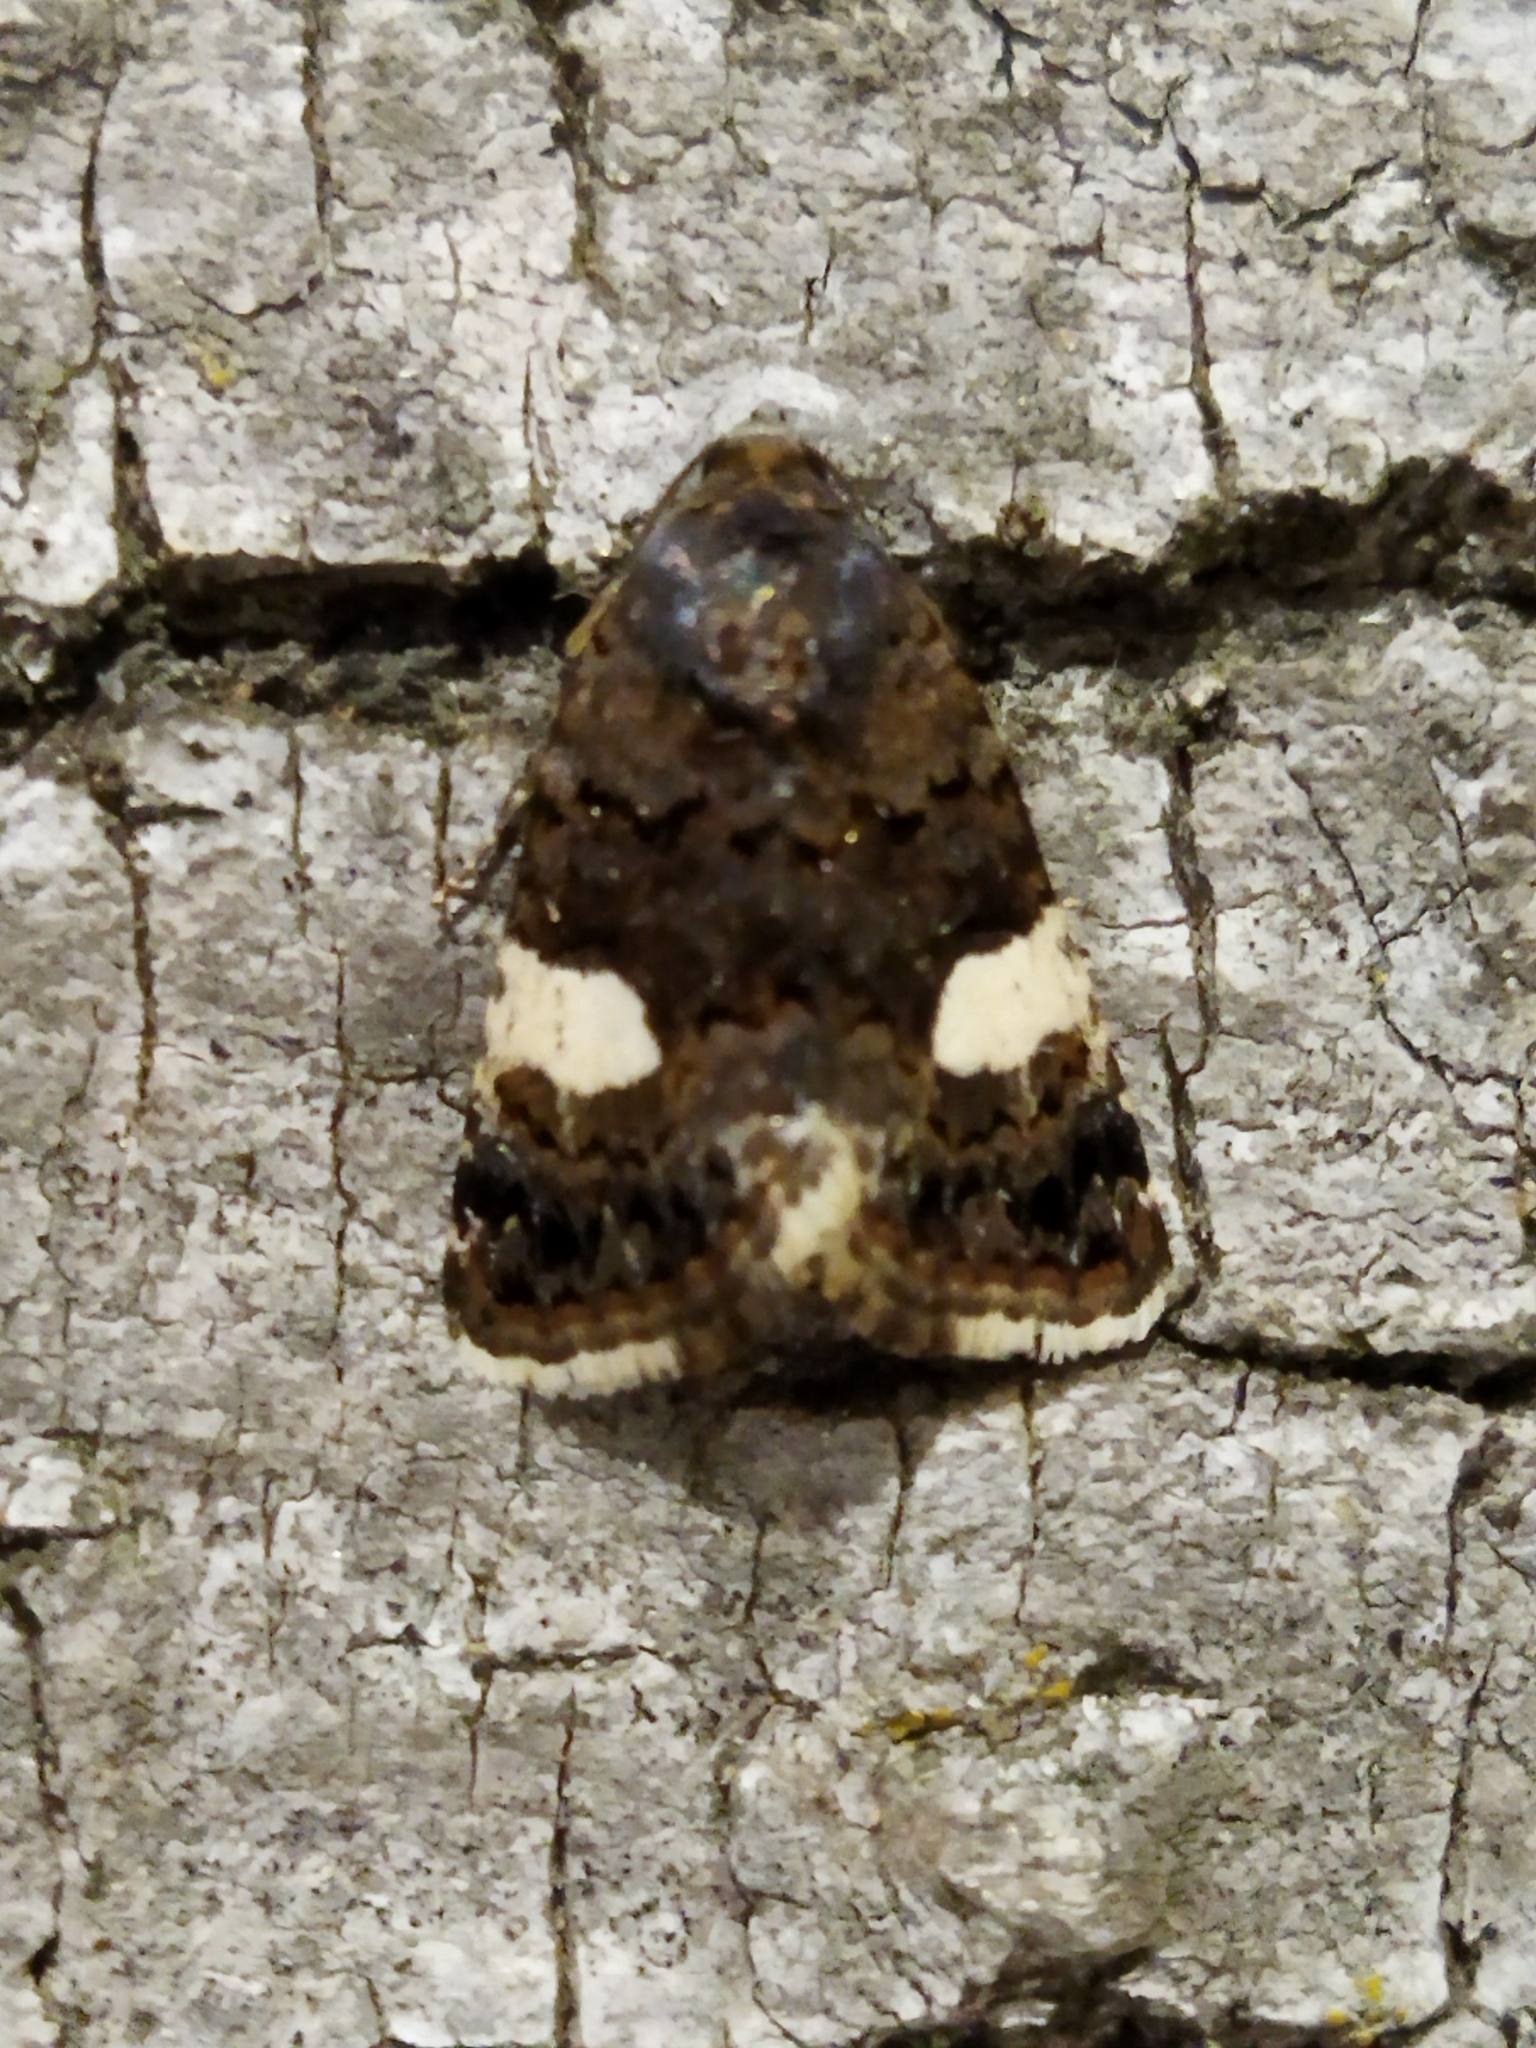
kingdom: Animalia
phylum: Arthropoda
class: Insecta
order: Lepidoptera
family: Erebidae
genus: Tyta
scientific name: Tyta luctuosa
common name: Four-spotted
